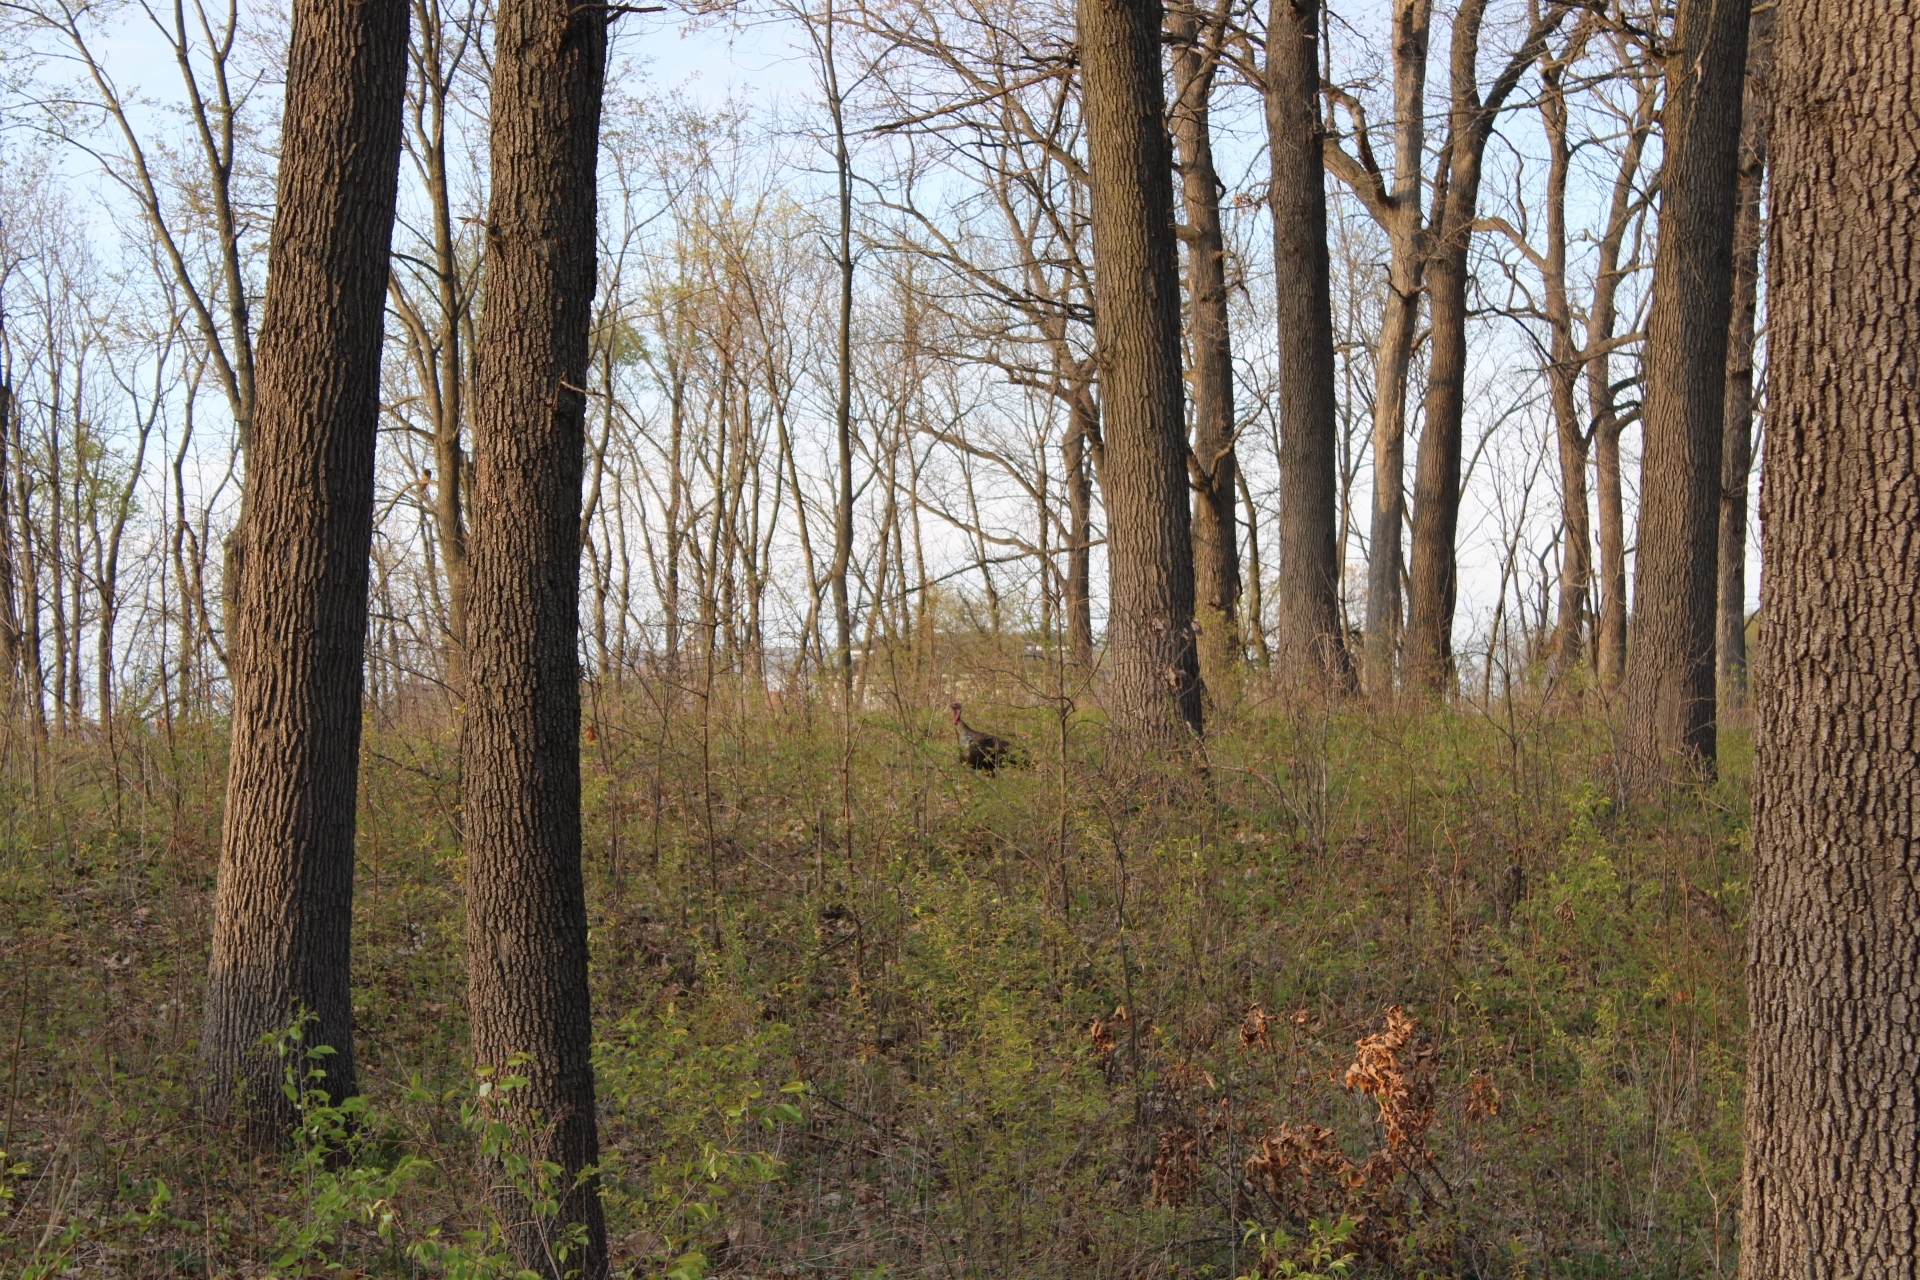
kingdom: Animalia
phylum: Chordata
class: Aves
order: Galliformes
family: Phasianidae
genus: Meleagris
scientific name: Meleagris gallopavo
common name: Wild turkey
